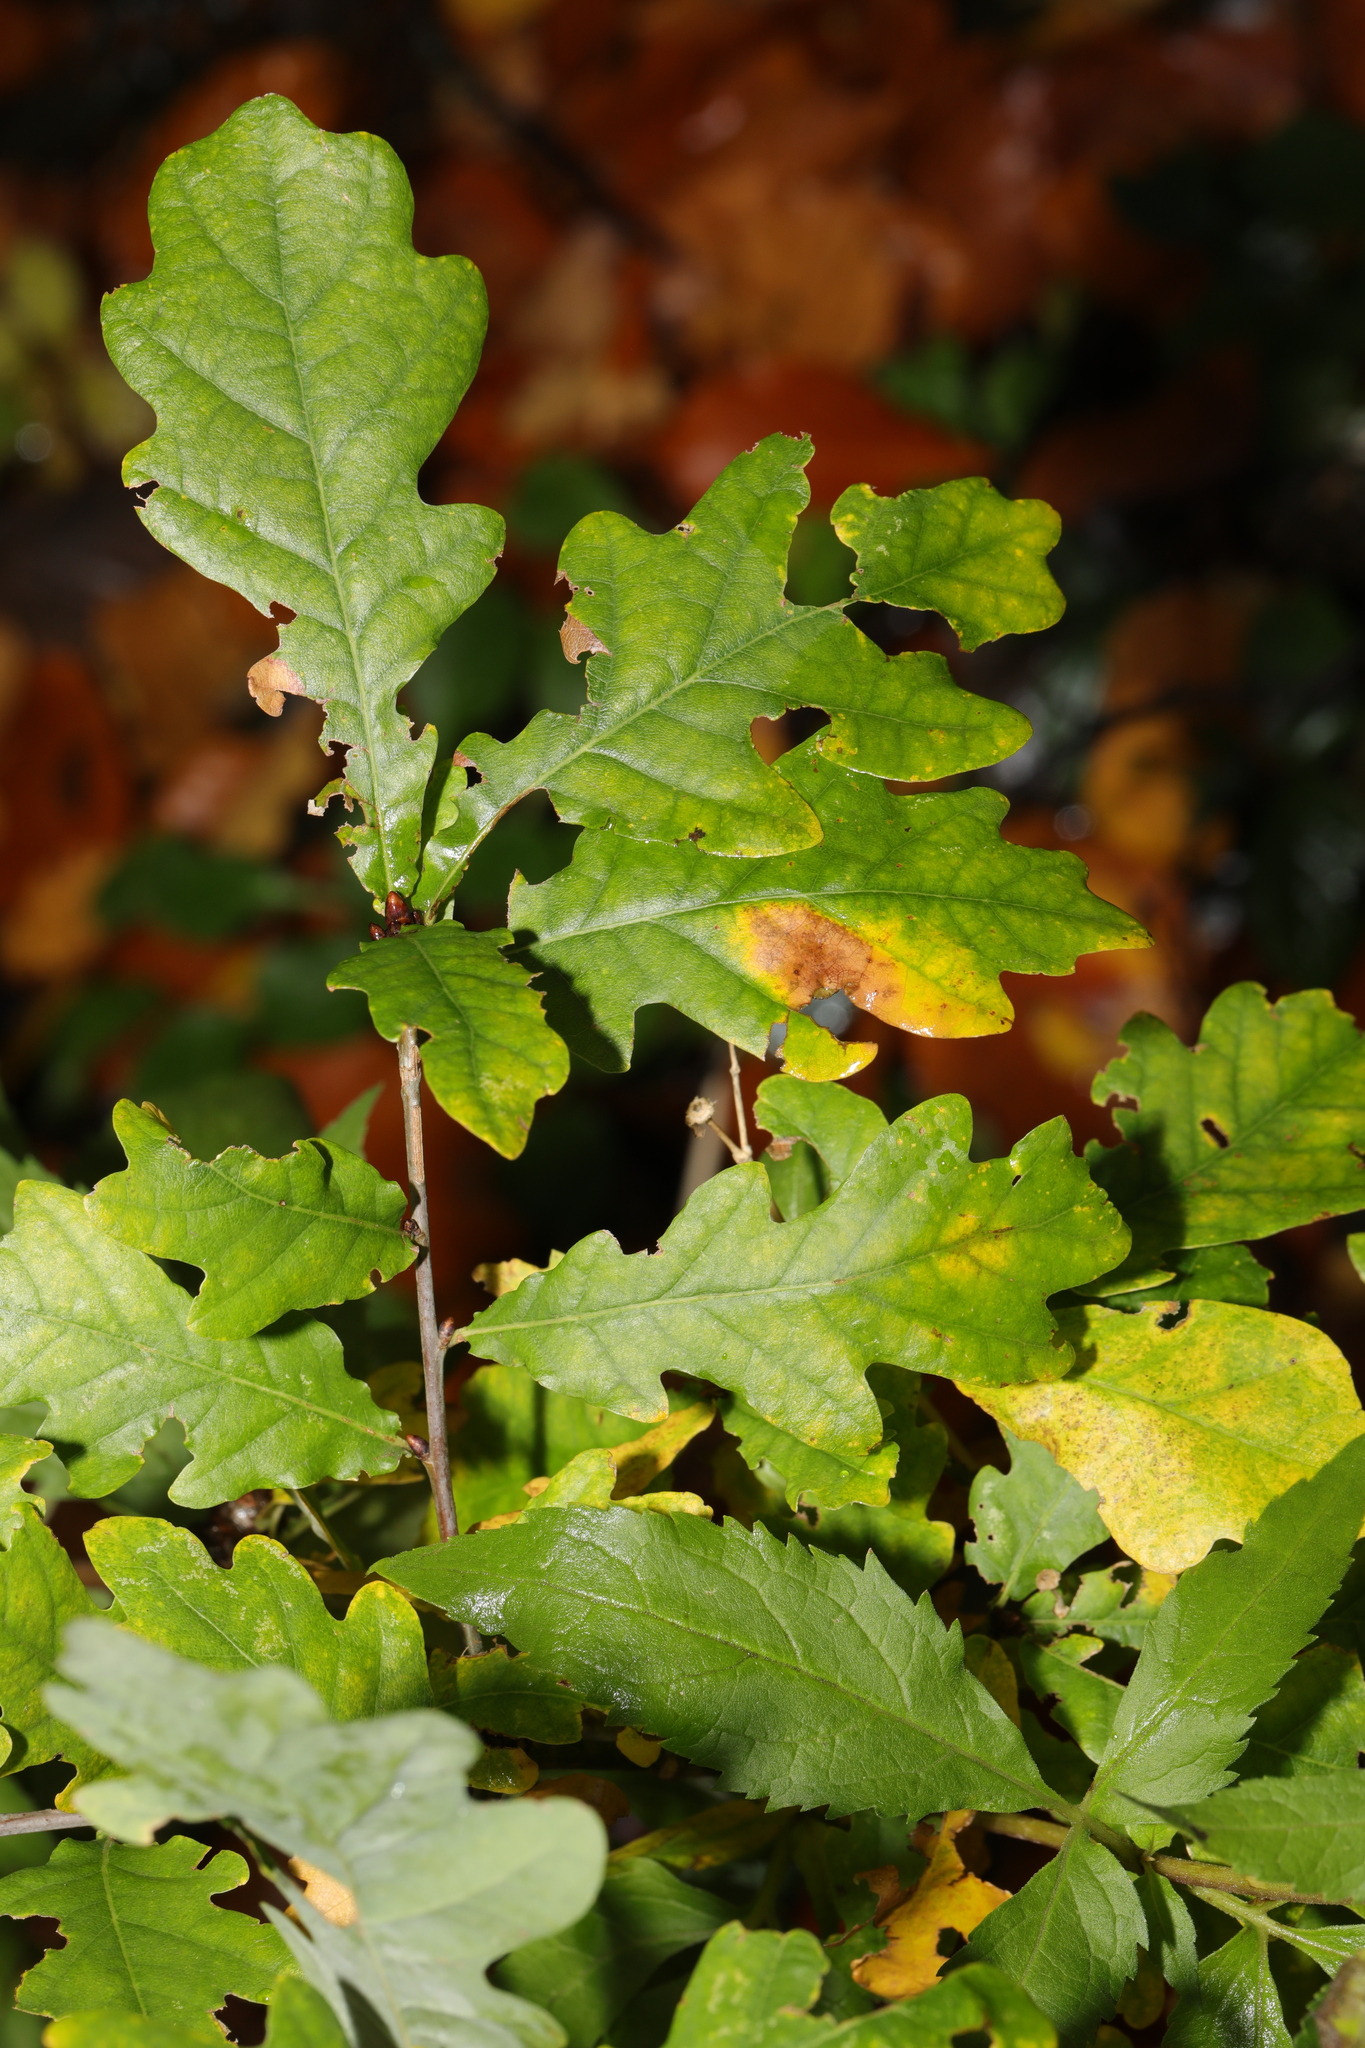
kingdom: Plantae
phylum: Tracheophyta
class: Magnoliopsida
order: Fagales
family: Fagaceae
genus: Quercus
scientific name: Quercus robur
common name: Pedunculate oak
